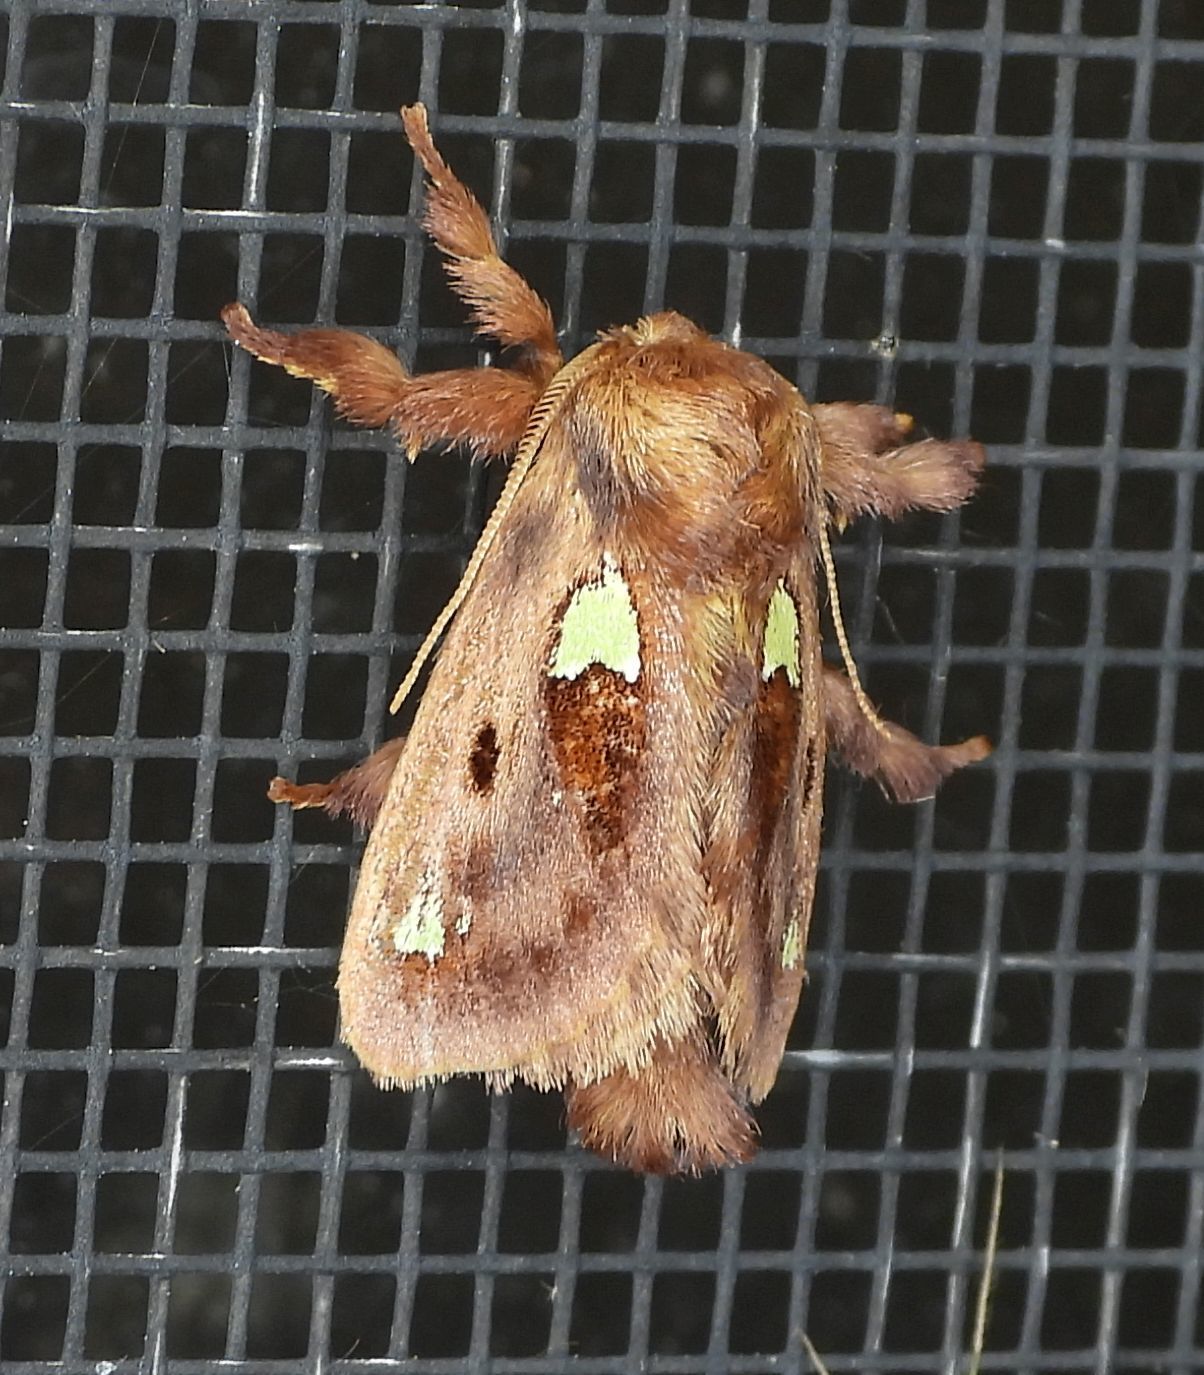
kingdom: Animalia
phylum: Arthropoda
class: Insecta
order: Lepidoptera
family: Limacodidae
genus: Euclea
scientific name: Euclea delphinii
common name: Spiny oak-slug moth
